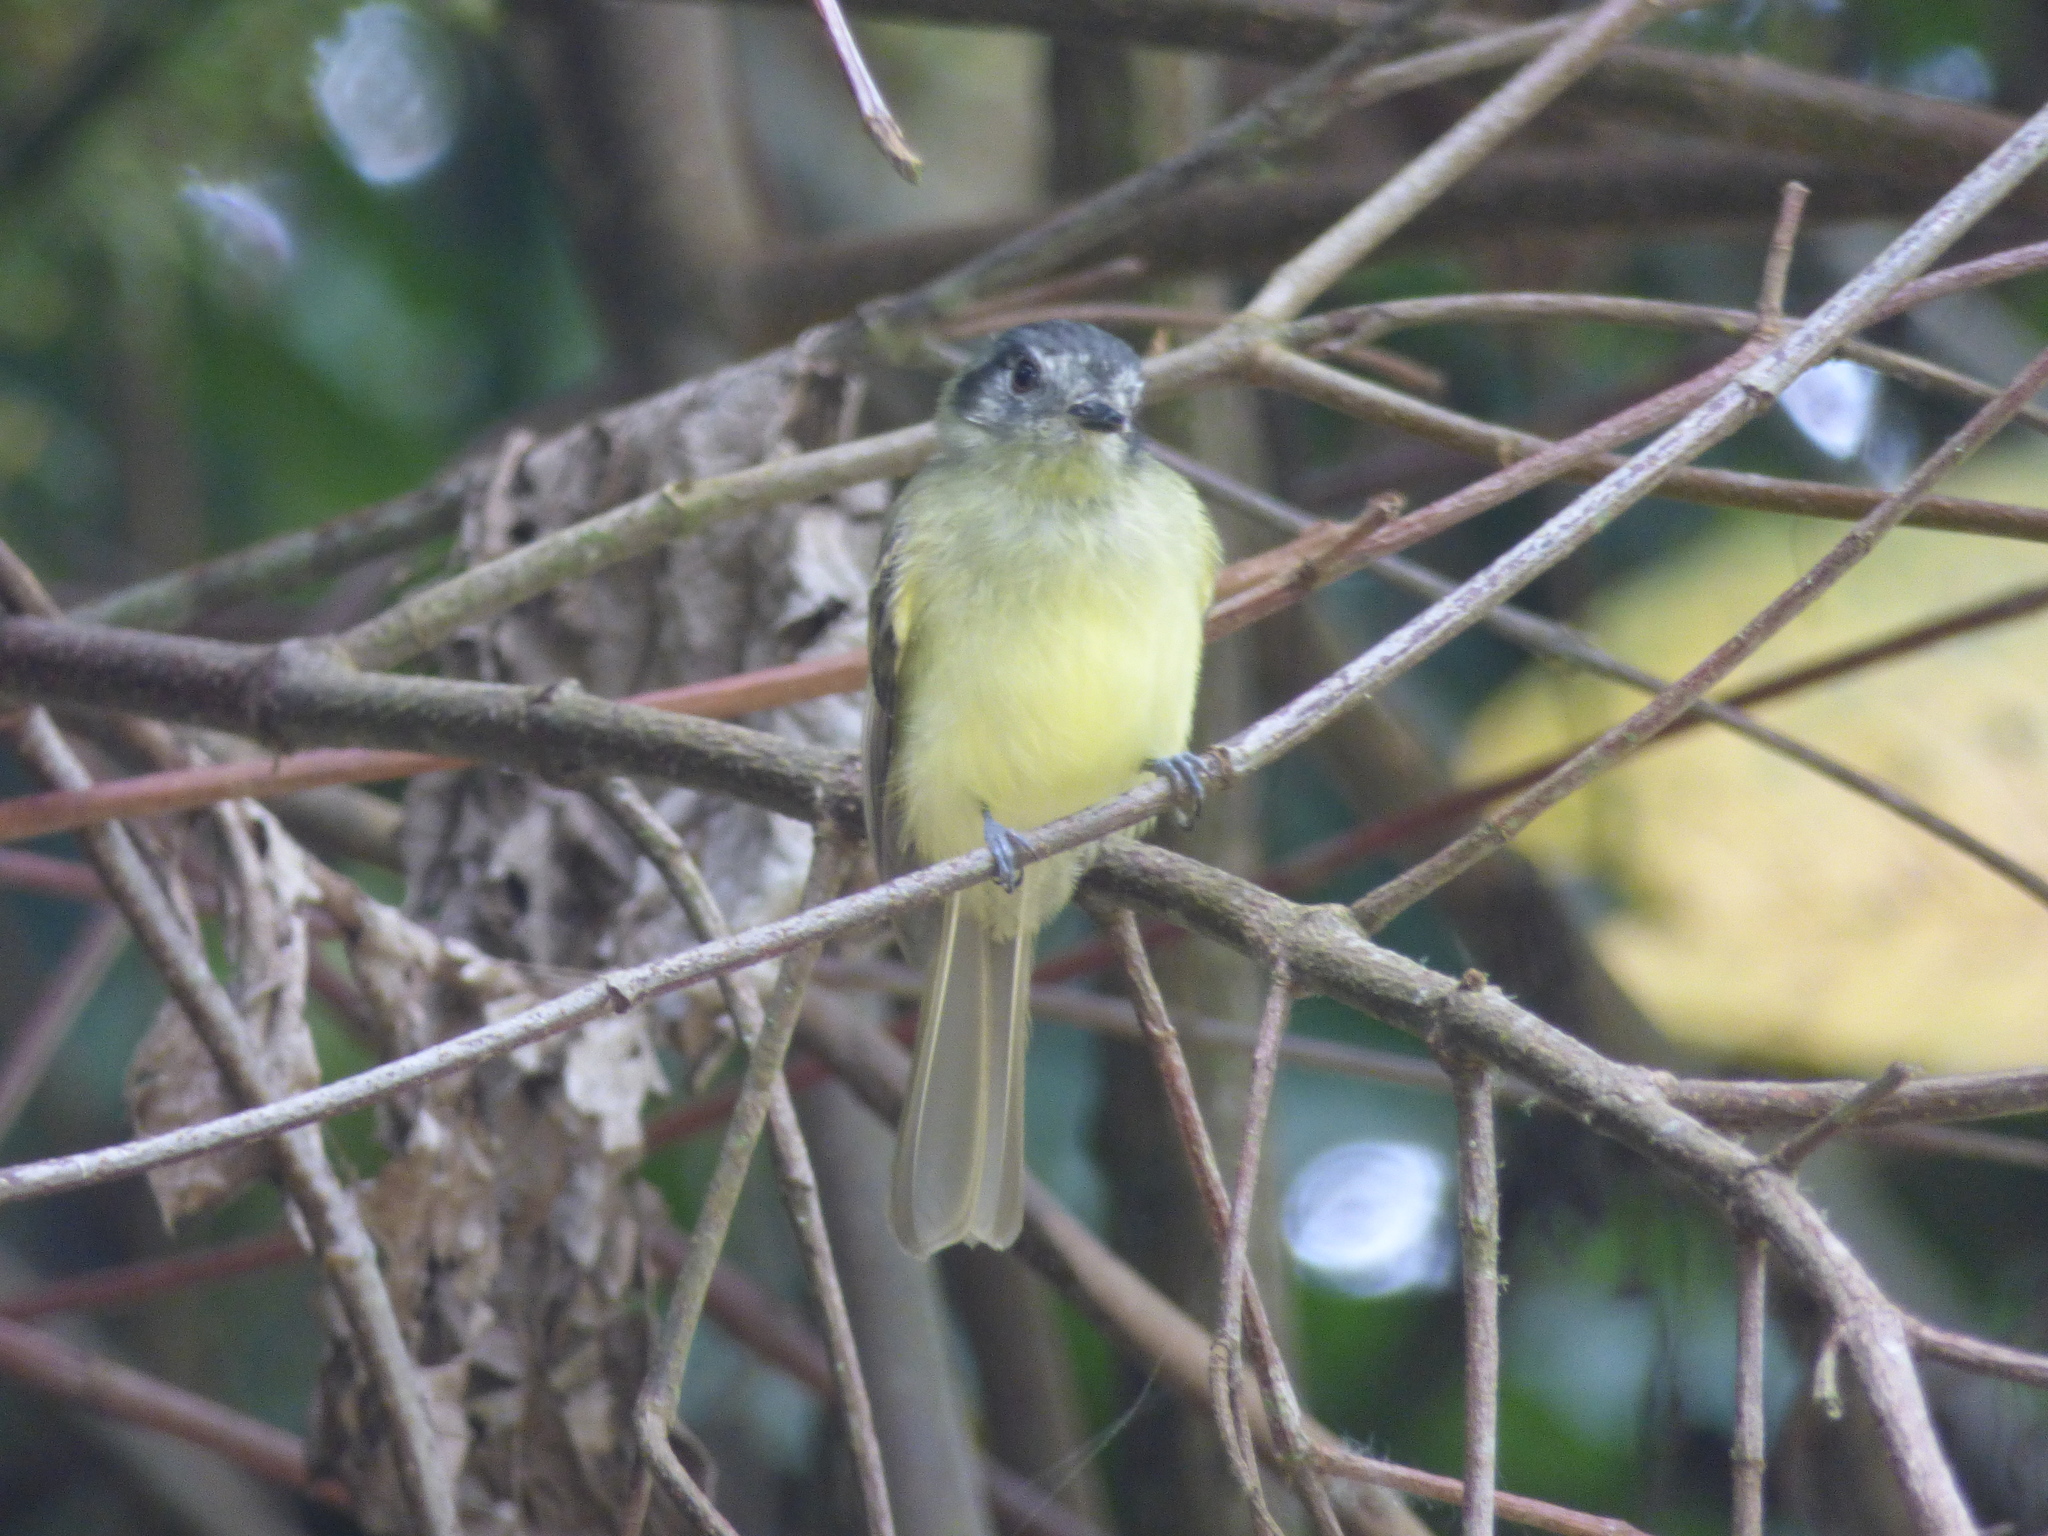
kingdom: Animalia
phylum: Chordata
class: Aves
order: Passeriformes
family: Tyrannidae
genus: Leptopogon
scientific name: Leptopogon superciliaris
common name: Slaty-capped flycatcher
